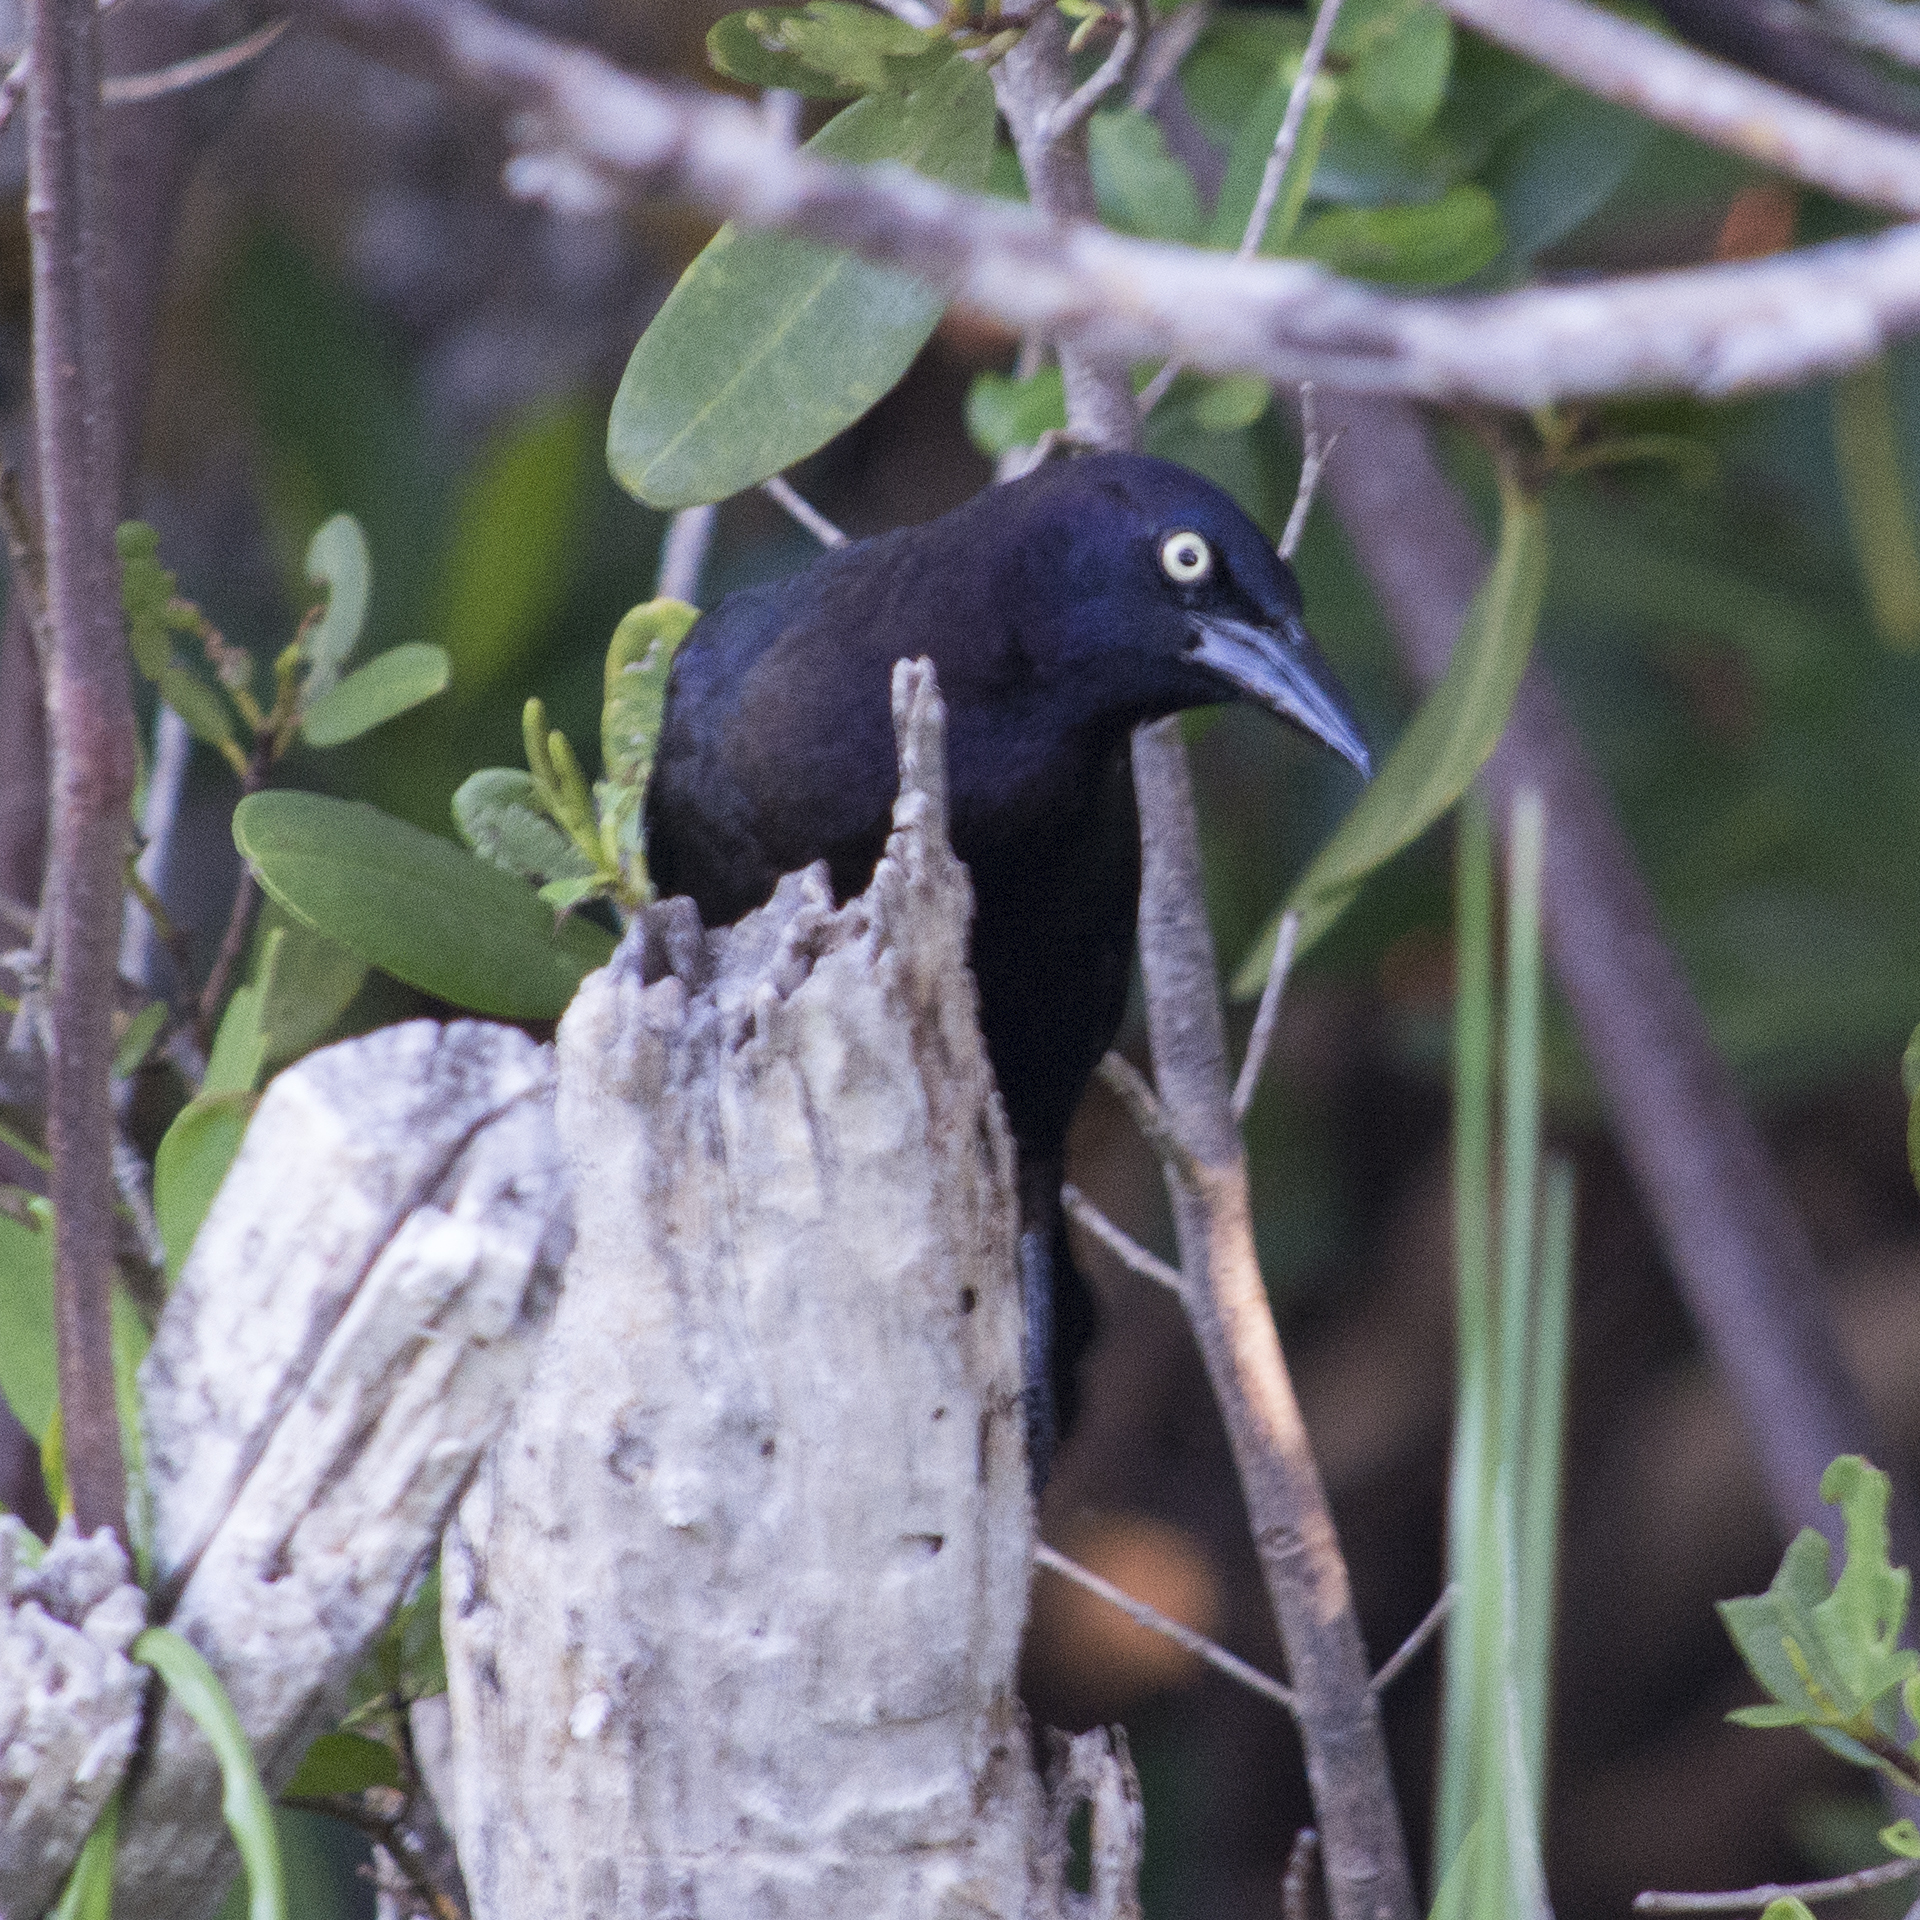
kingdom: Animalia
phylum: Chordata
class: Aves
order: Passeriformes
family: Icteridae
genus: Quiscalus
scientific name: Quiscalus quiscula
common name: Common grackle
